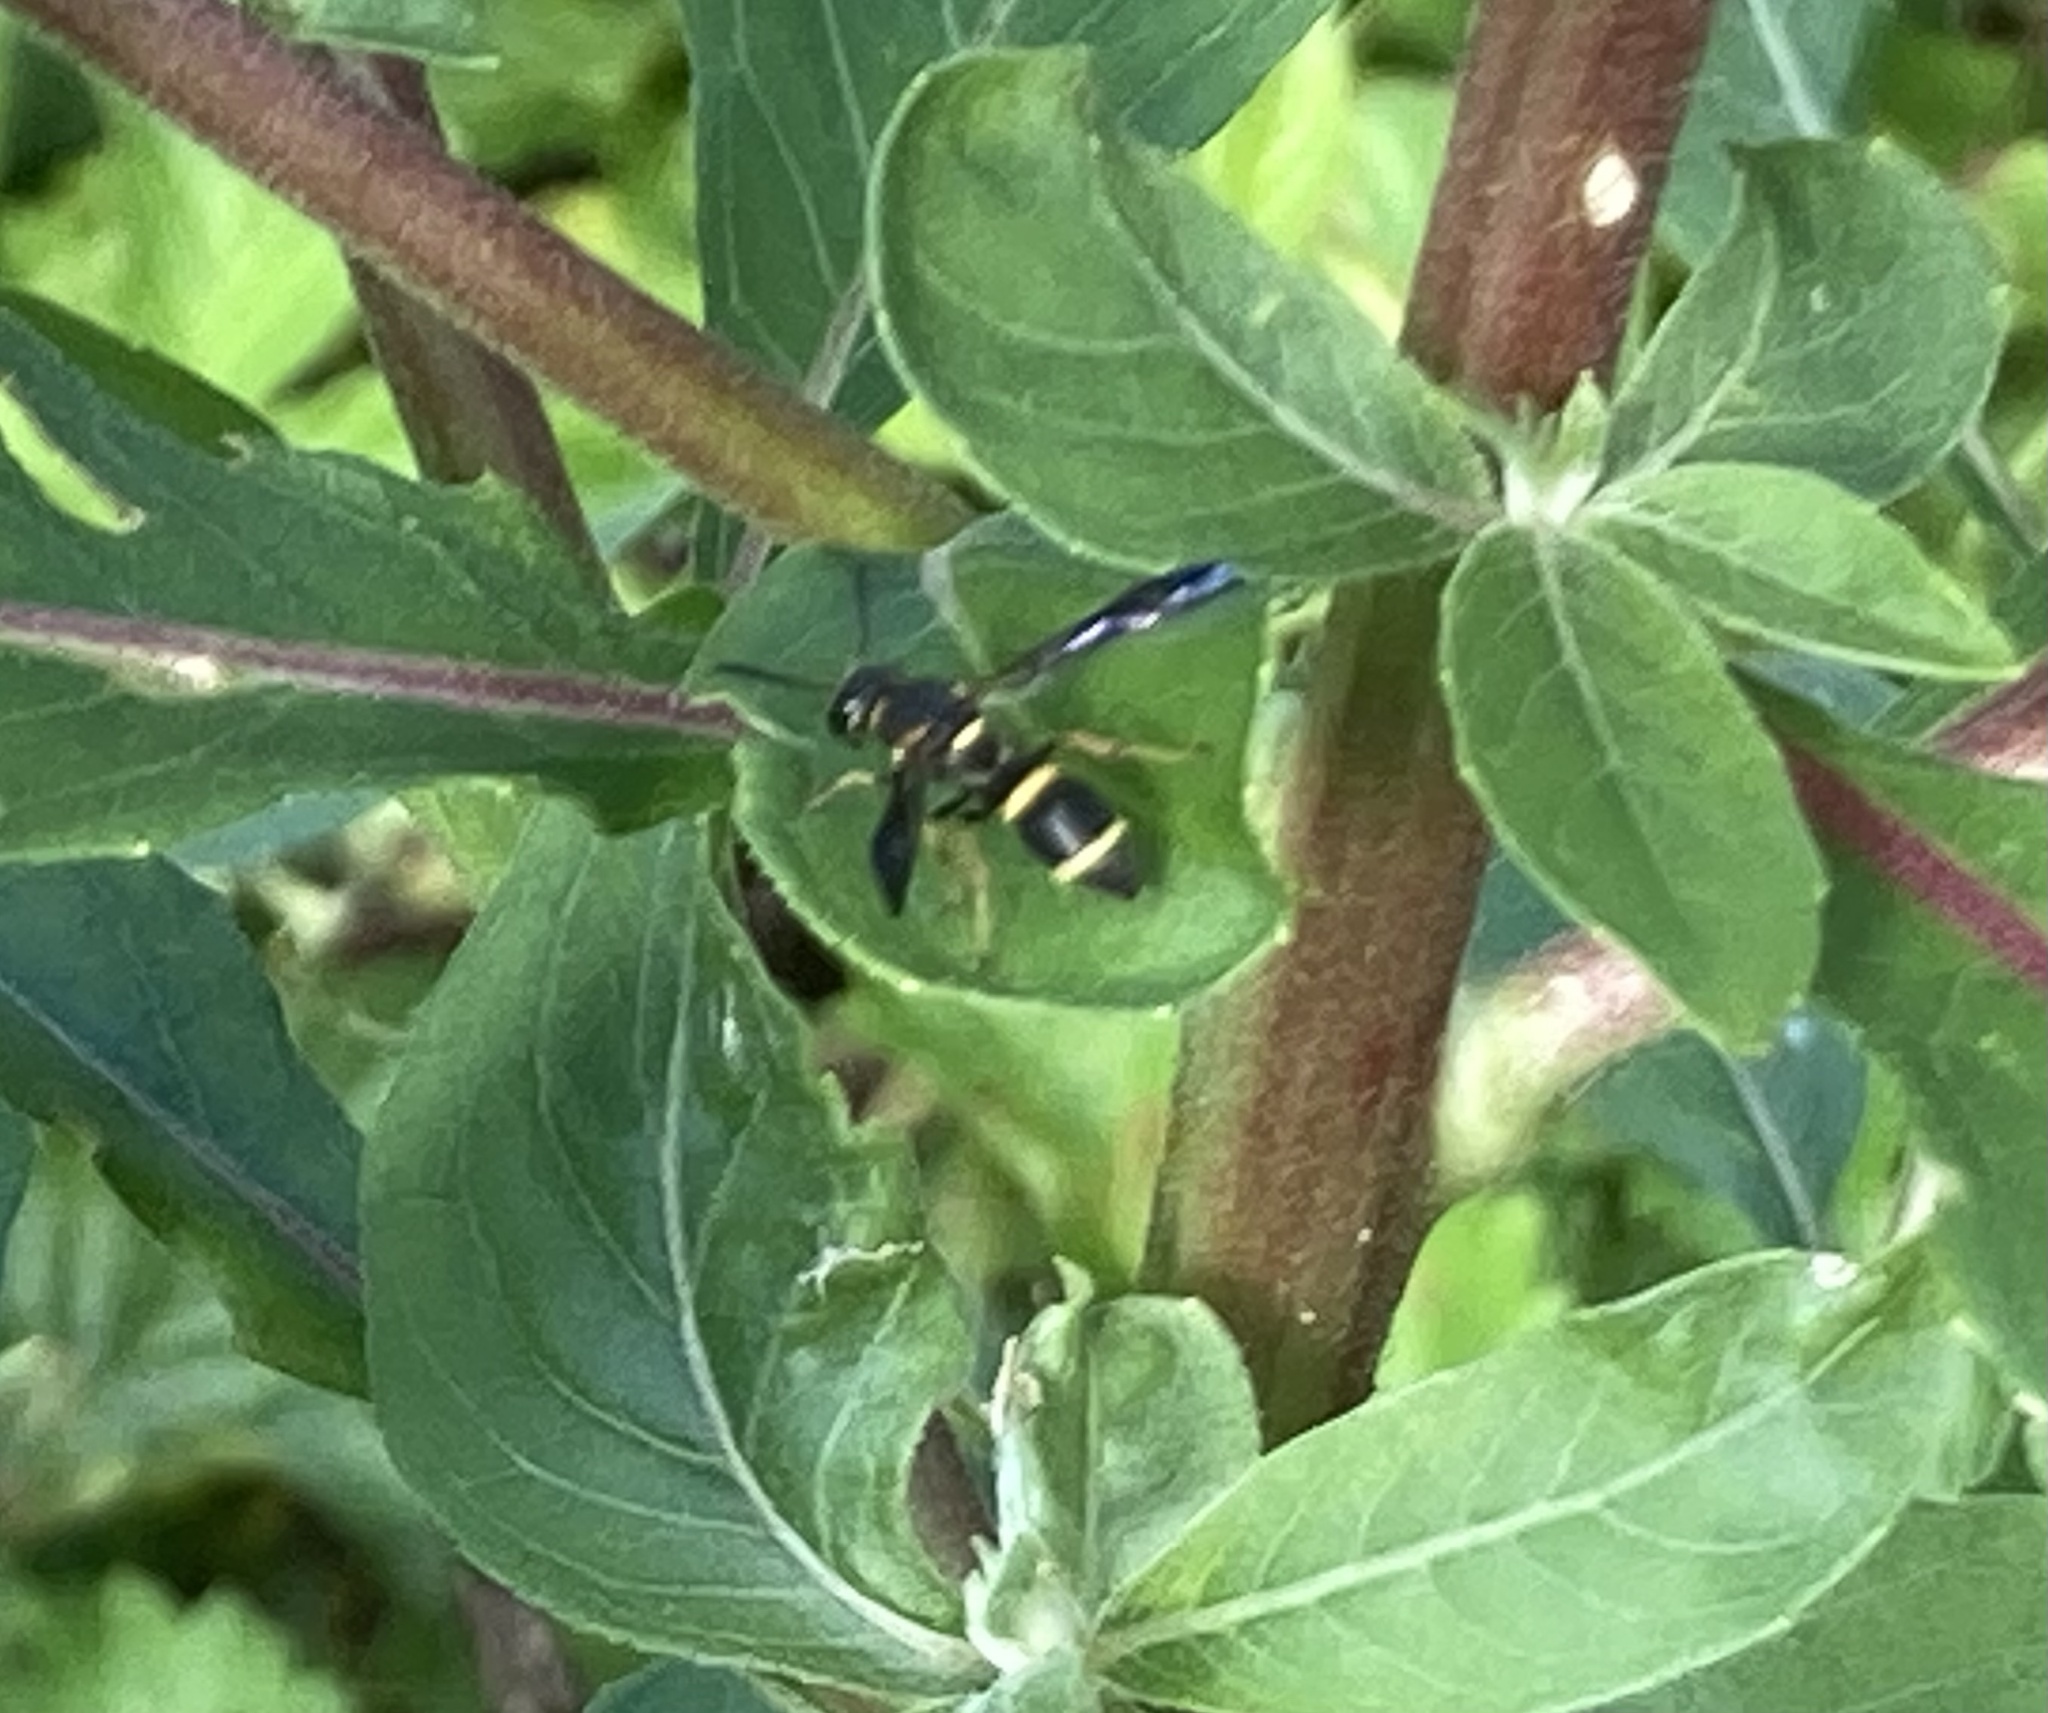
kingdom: Animalia
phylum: Arthropoda
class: Insecta
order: Hymenoptera
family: Eumenidae
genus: Parancistrocerus
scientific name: Parancistrocerus perennis
